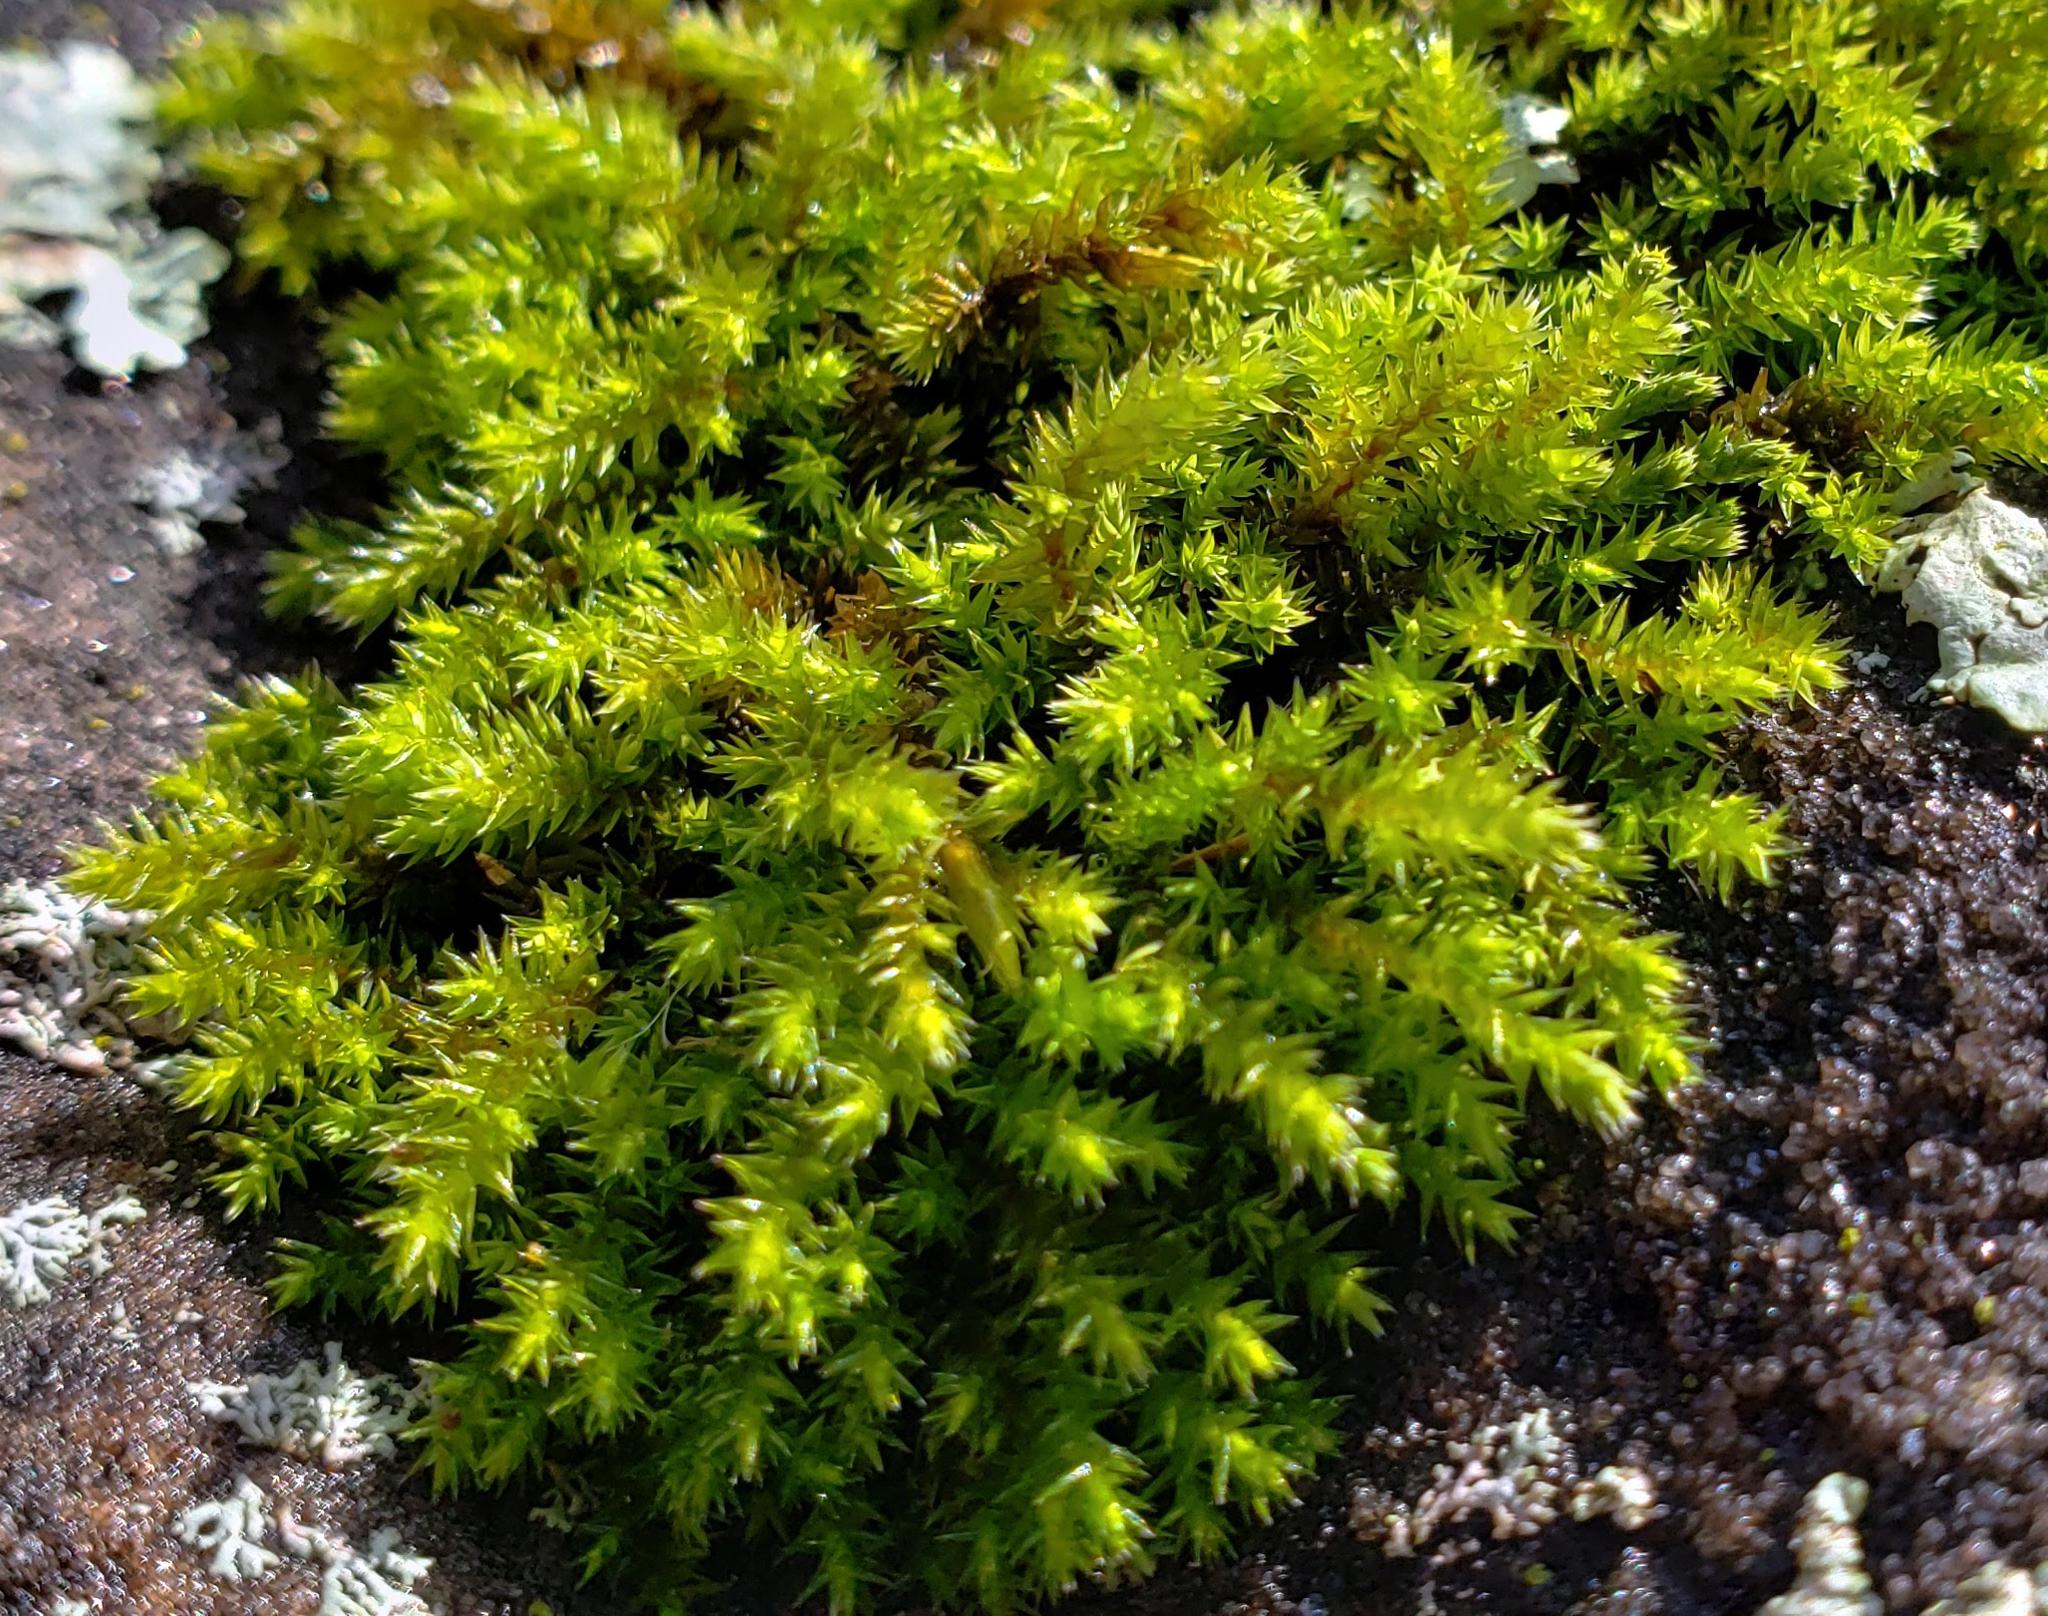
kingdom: Plantae
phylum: Bryophyta
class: Bryopsida
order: Hedwigiales
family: Hedwigiaceae
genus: Hedwigia
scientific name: Hedwigia ciliata
